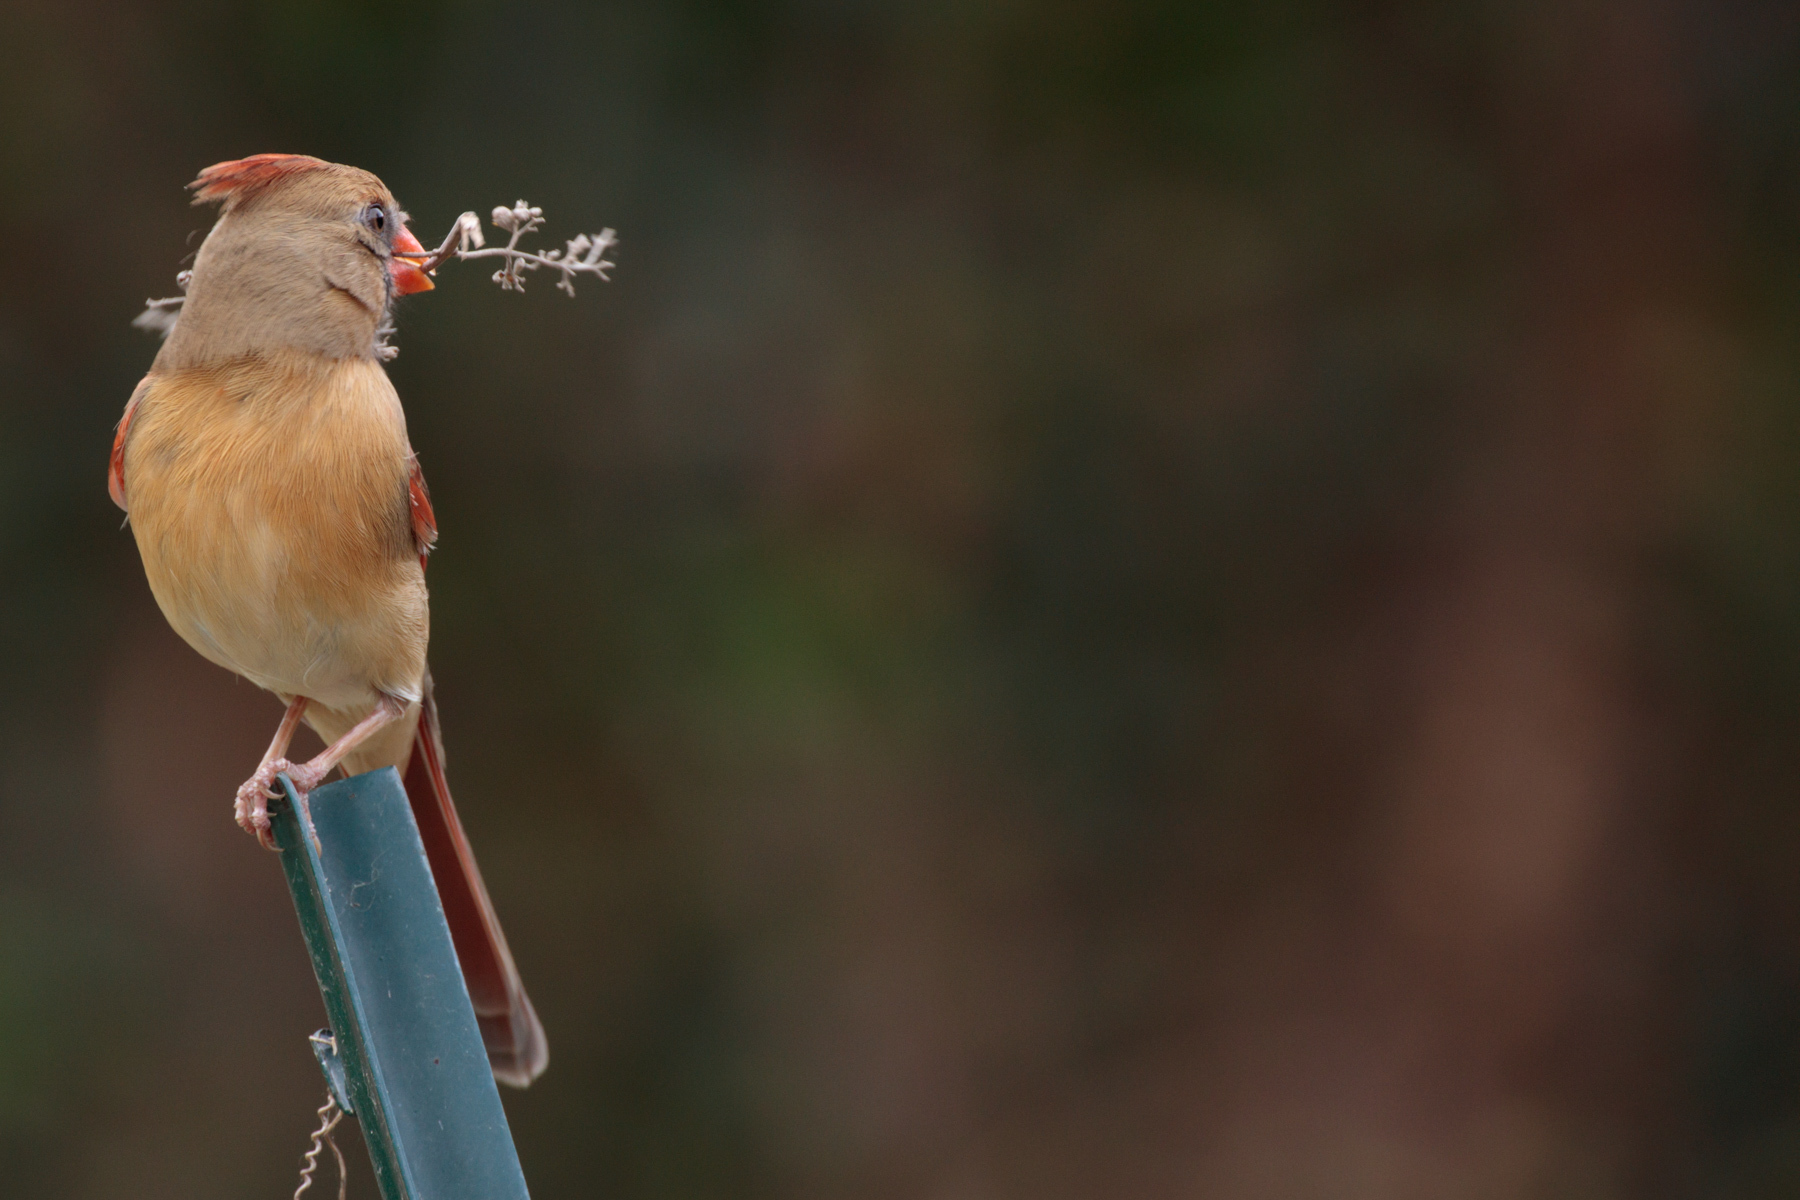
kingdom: Animalia
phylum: Chordata
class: Aves
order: Passeriformes
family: Cardinalidae
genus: Cardinalis
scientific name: Cardinalis cardinalis
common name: Northern cardinal
